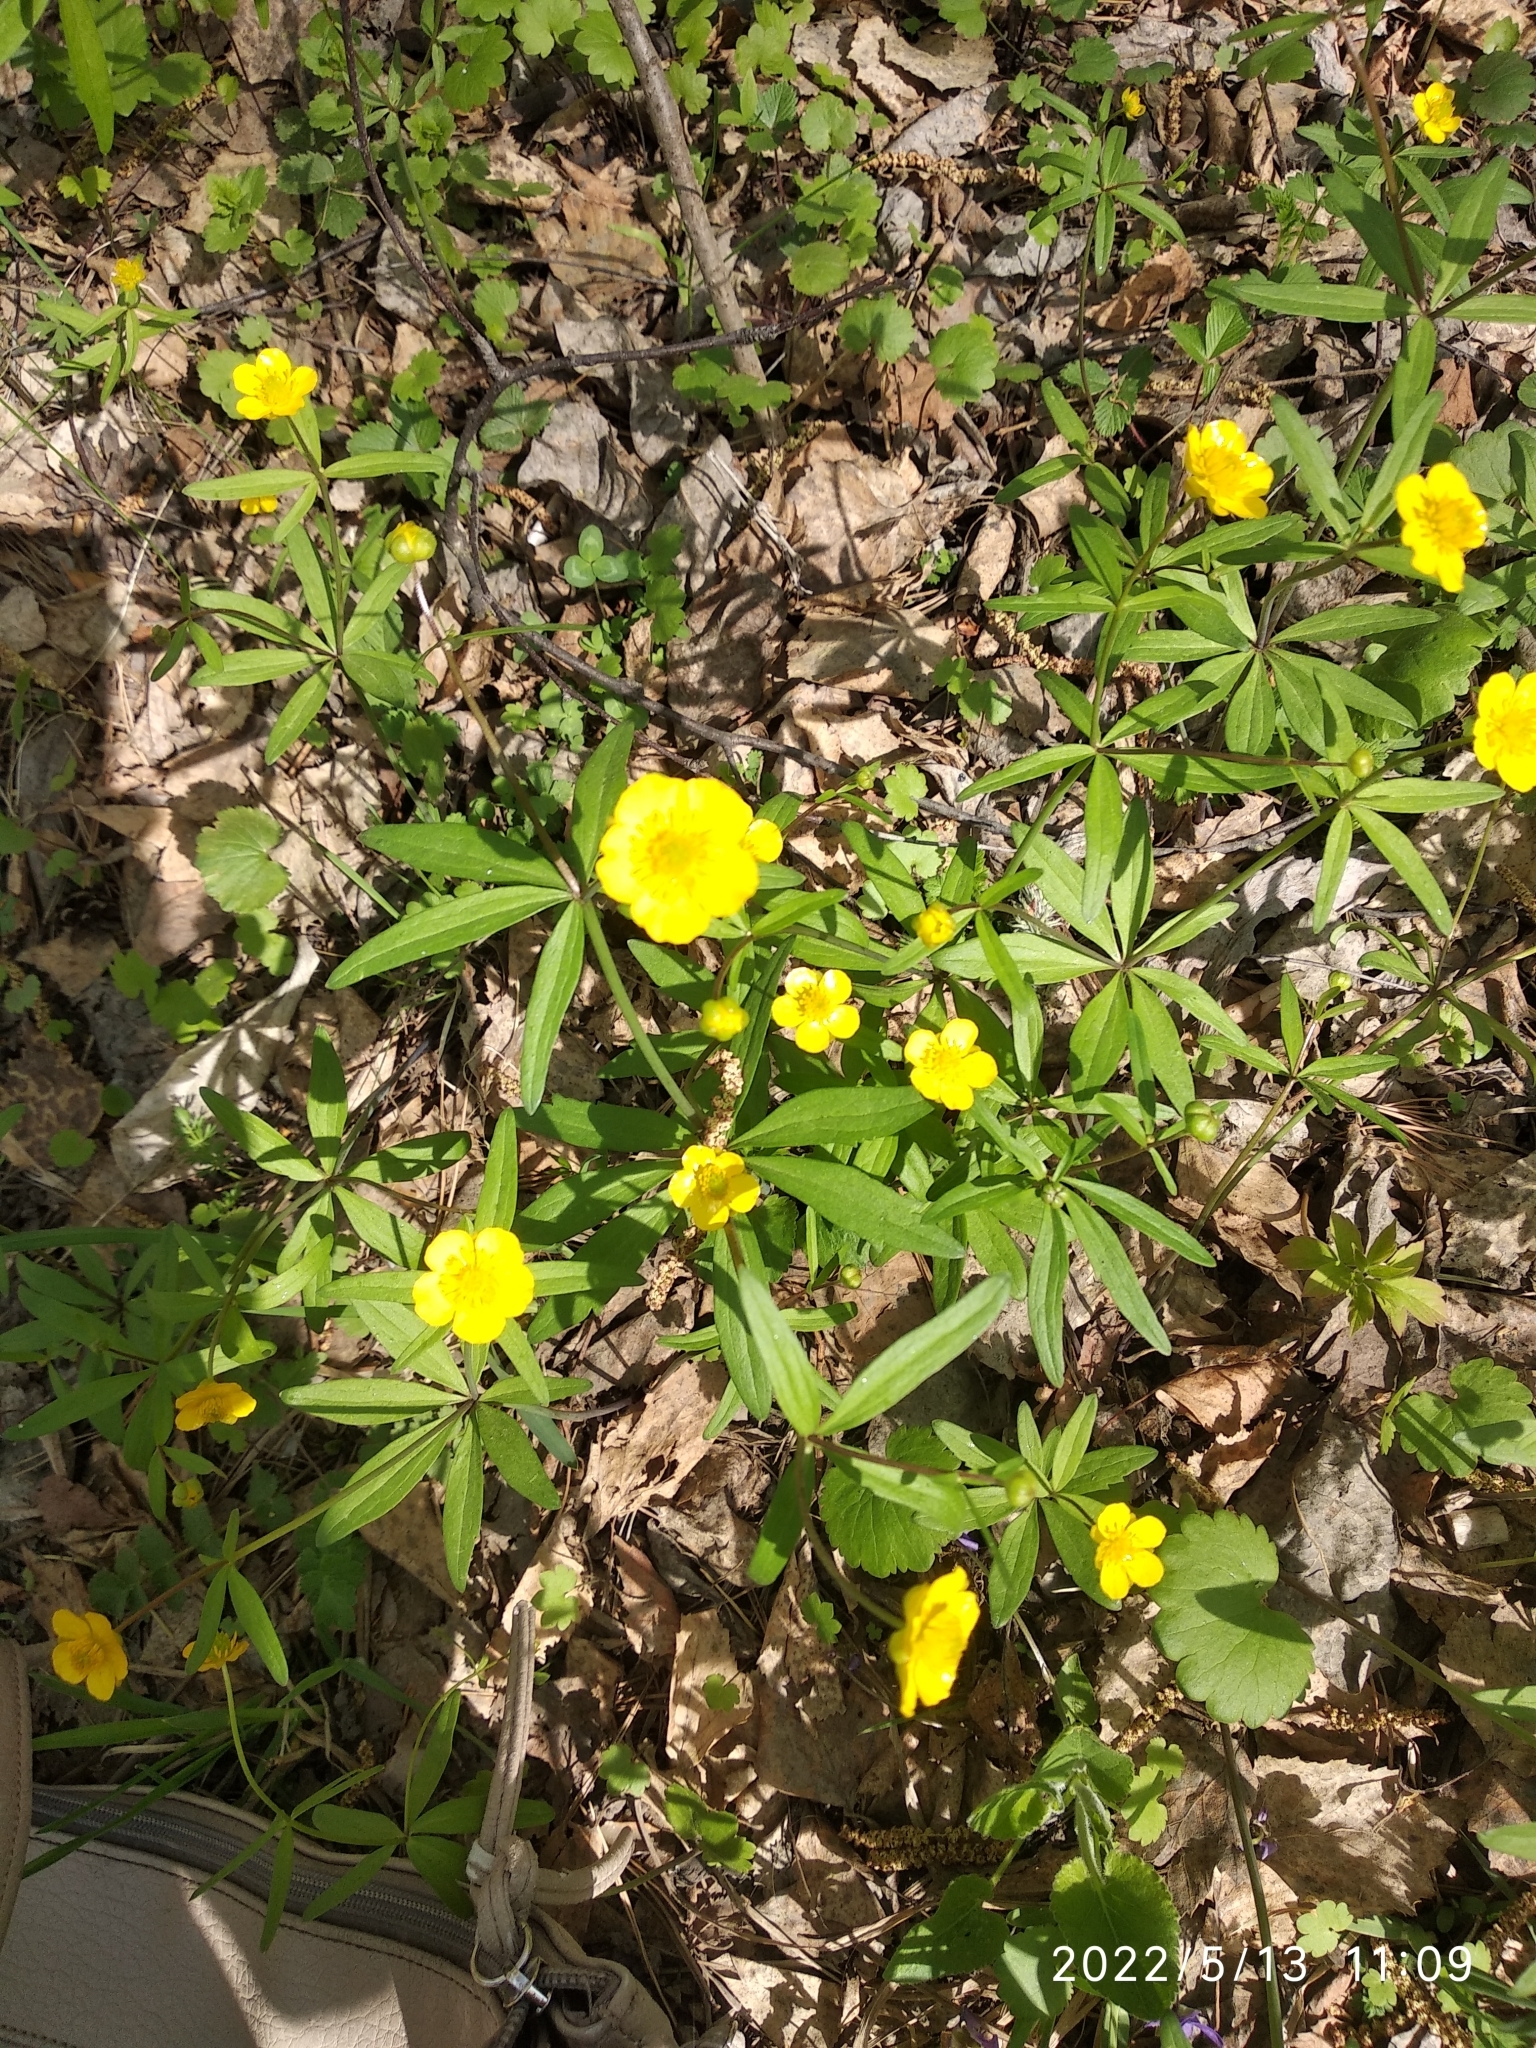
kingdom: Plantae
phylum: Tracheophyta
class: Magnoliopsida
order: Ranunculales
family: Ranunculaceae
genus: Ranunculus
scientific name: Ranunculus monophyllus
